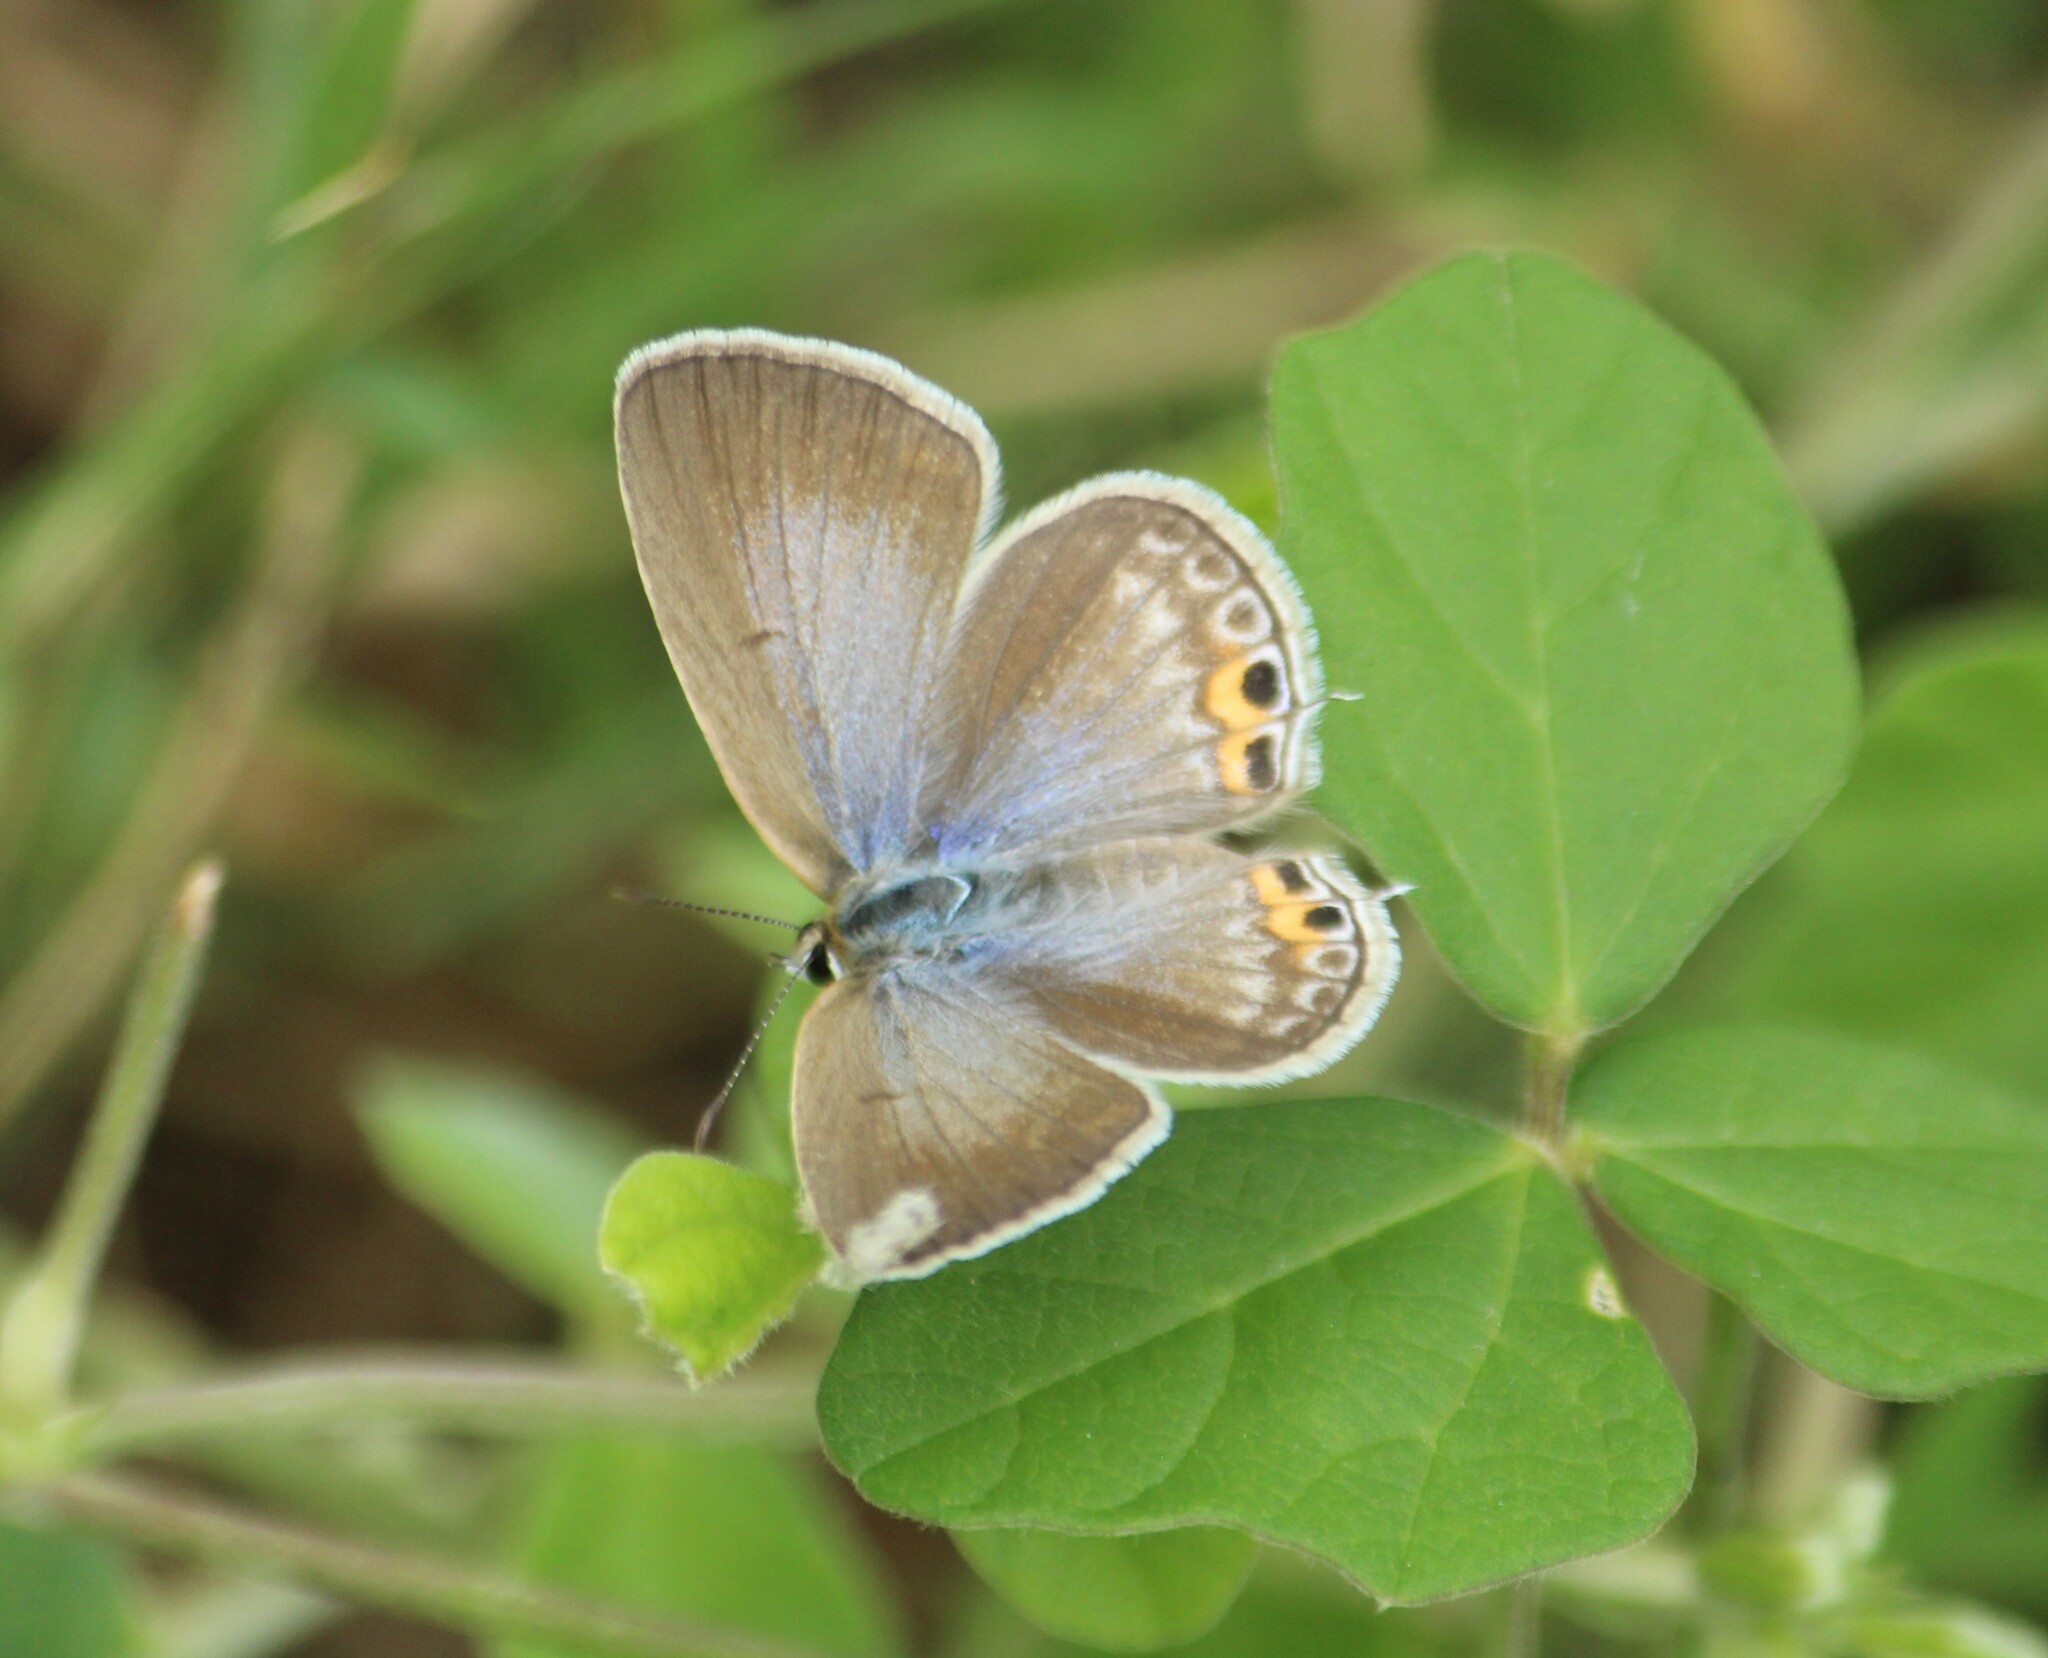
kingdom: Animalia
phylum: Arthropoda
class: Insecta
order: Lepidoptera
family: Lycaenidae
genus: Euchrysops
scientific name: Euchrysops cnejus
